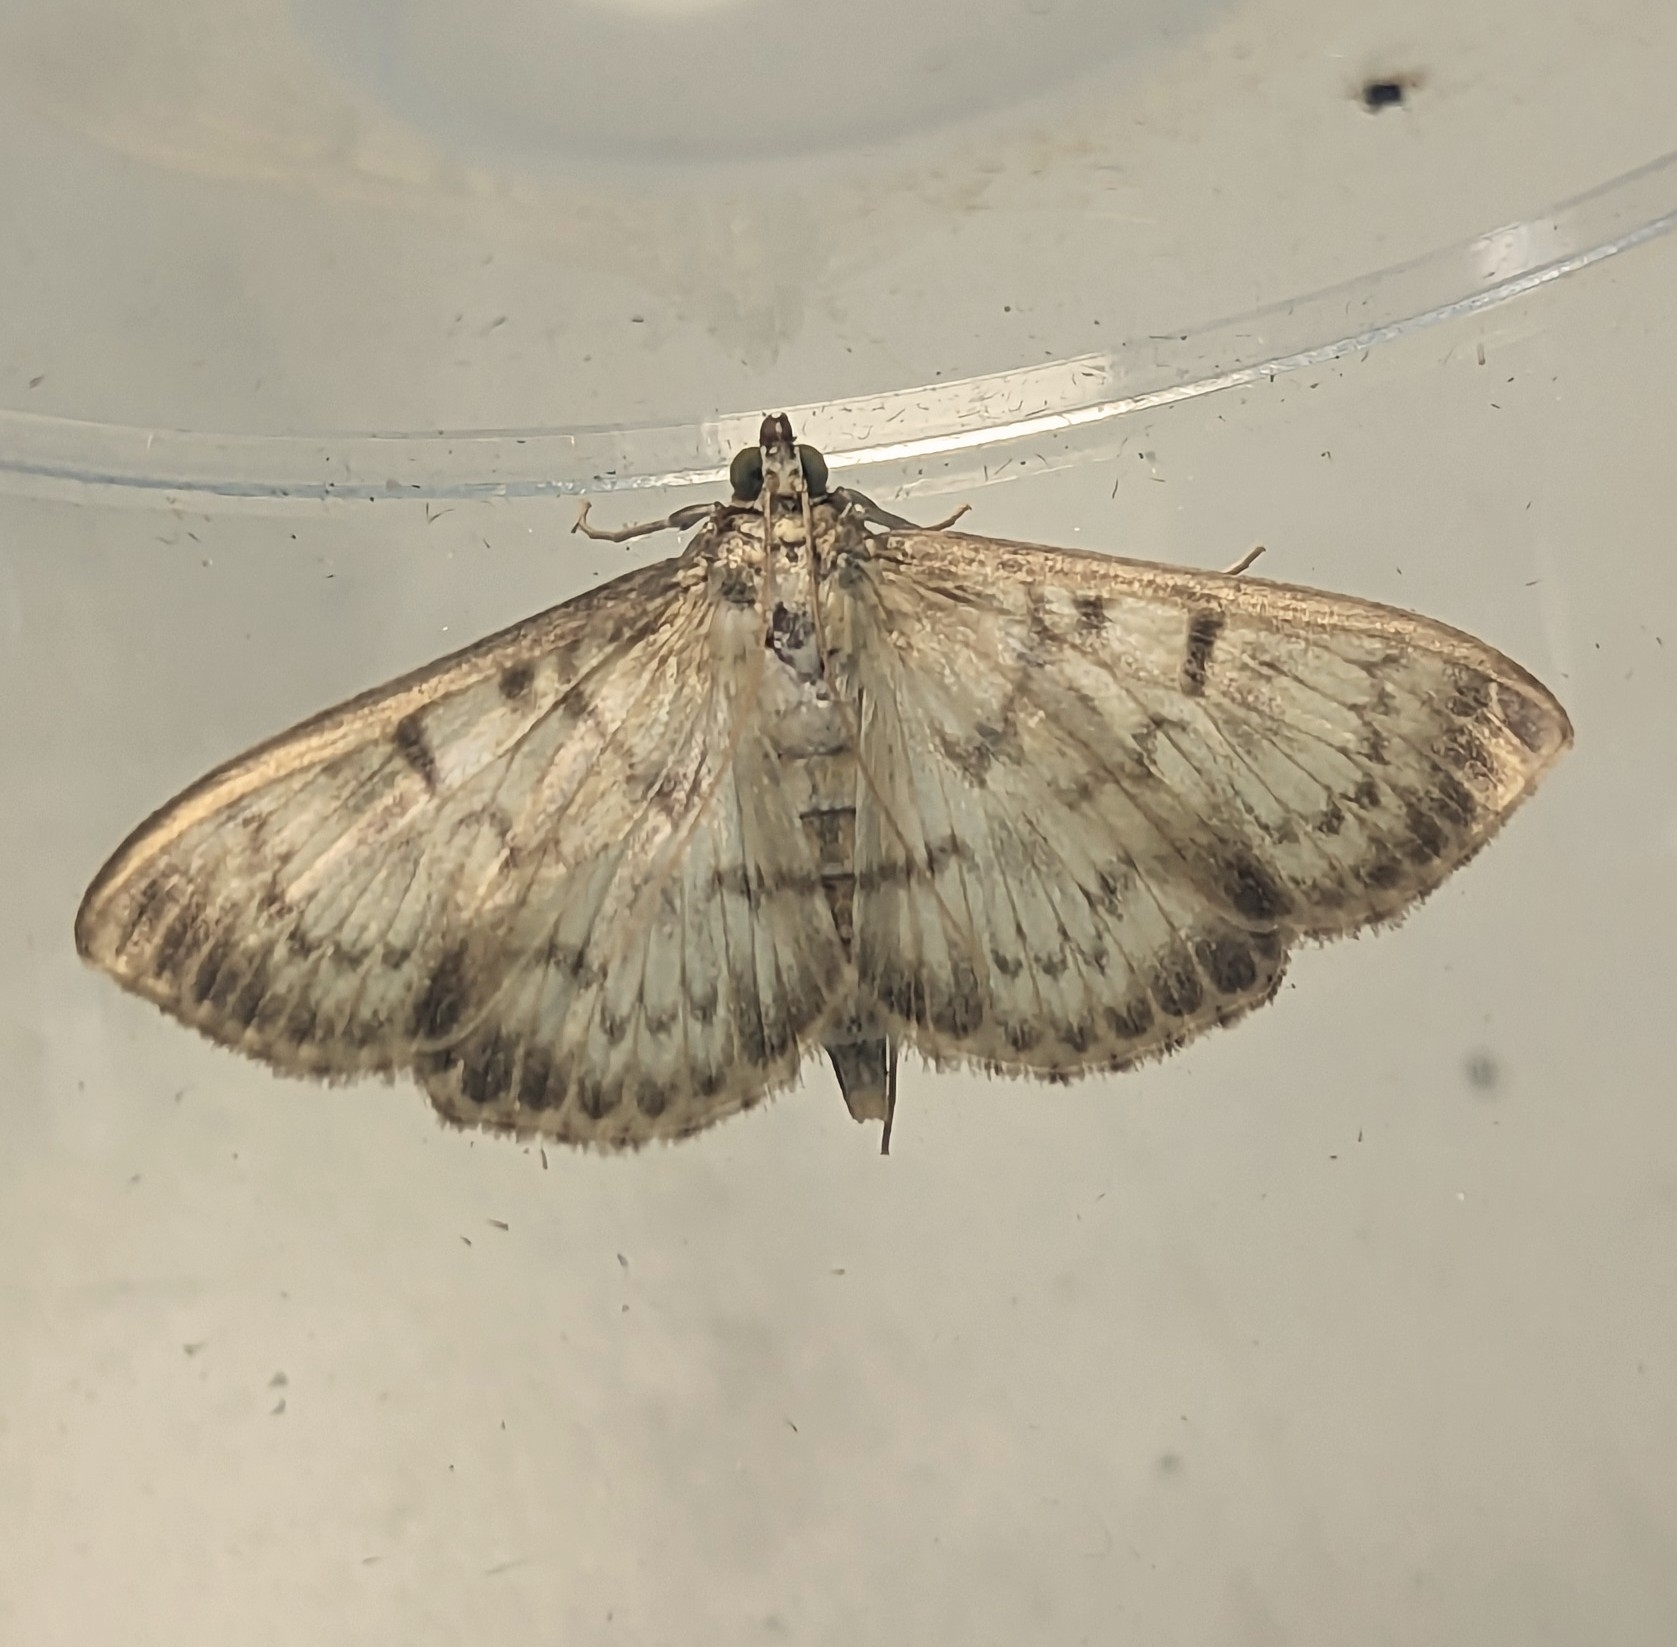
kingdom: Animalia
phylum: Arthropoda
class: Insecta
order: Lepidoptera
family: Crambidae
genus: Patania
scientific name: Patania ruralis
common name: Mother of pearl
